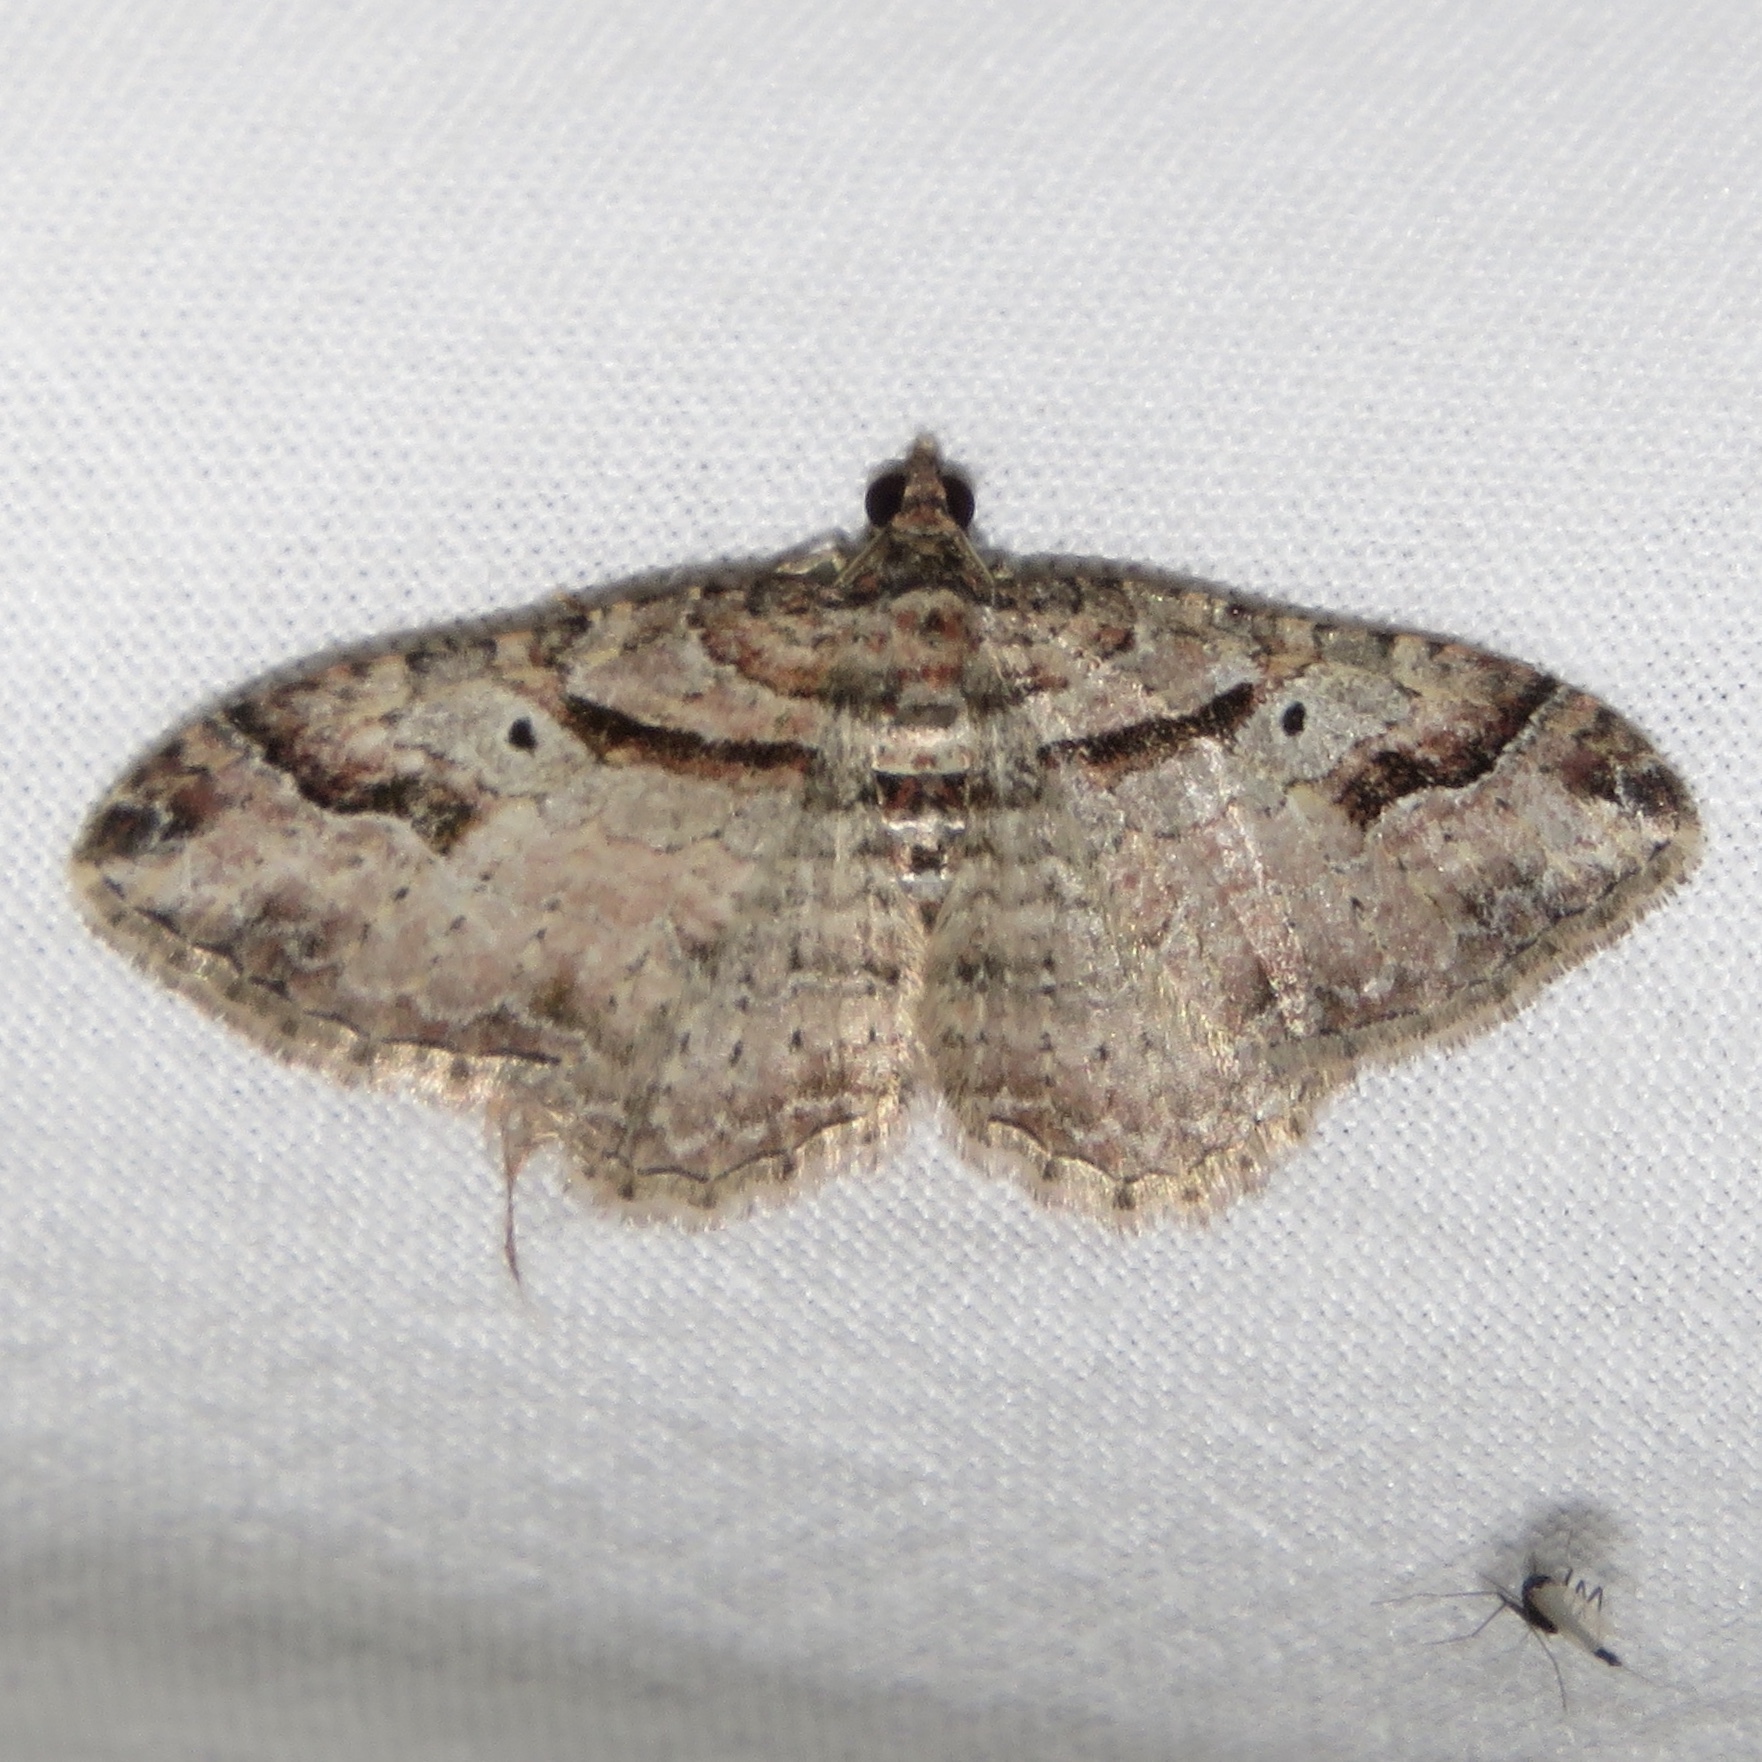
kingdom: Animalia
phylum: Arthropoda
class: Insecta
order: Lepidoptera
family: Geometridae
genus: Costaconvexa
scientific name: Costaconvexa centrostrigaria
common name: Bent-line carpet
